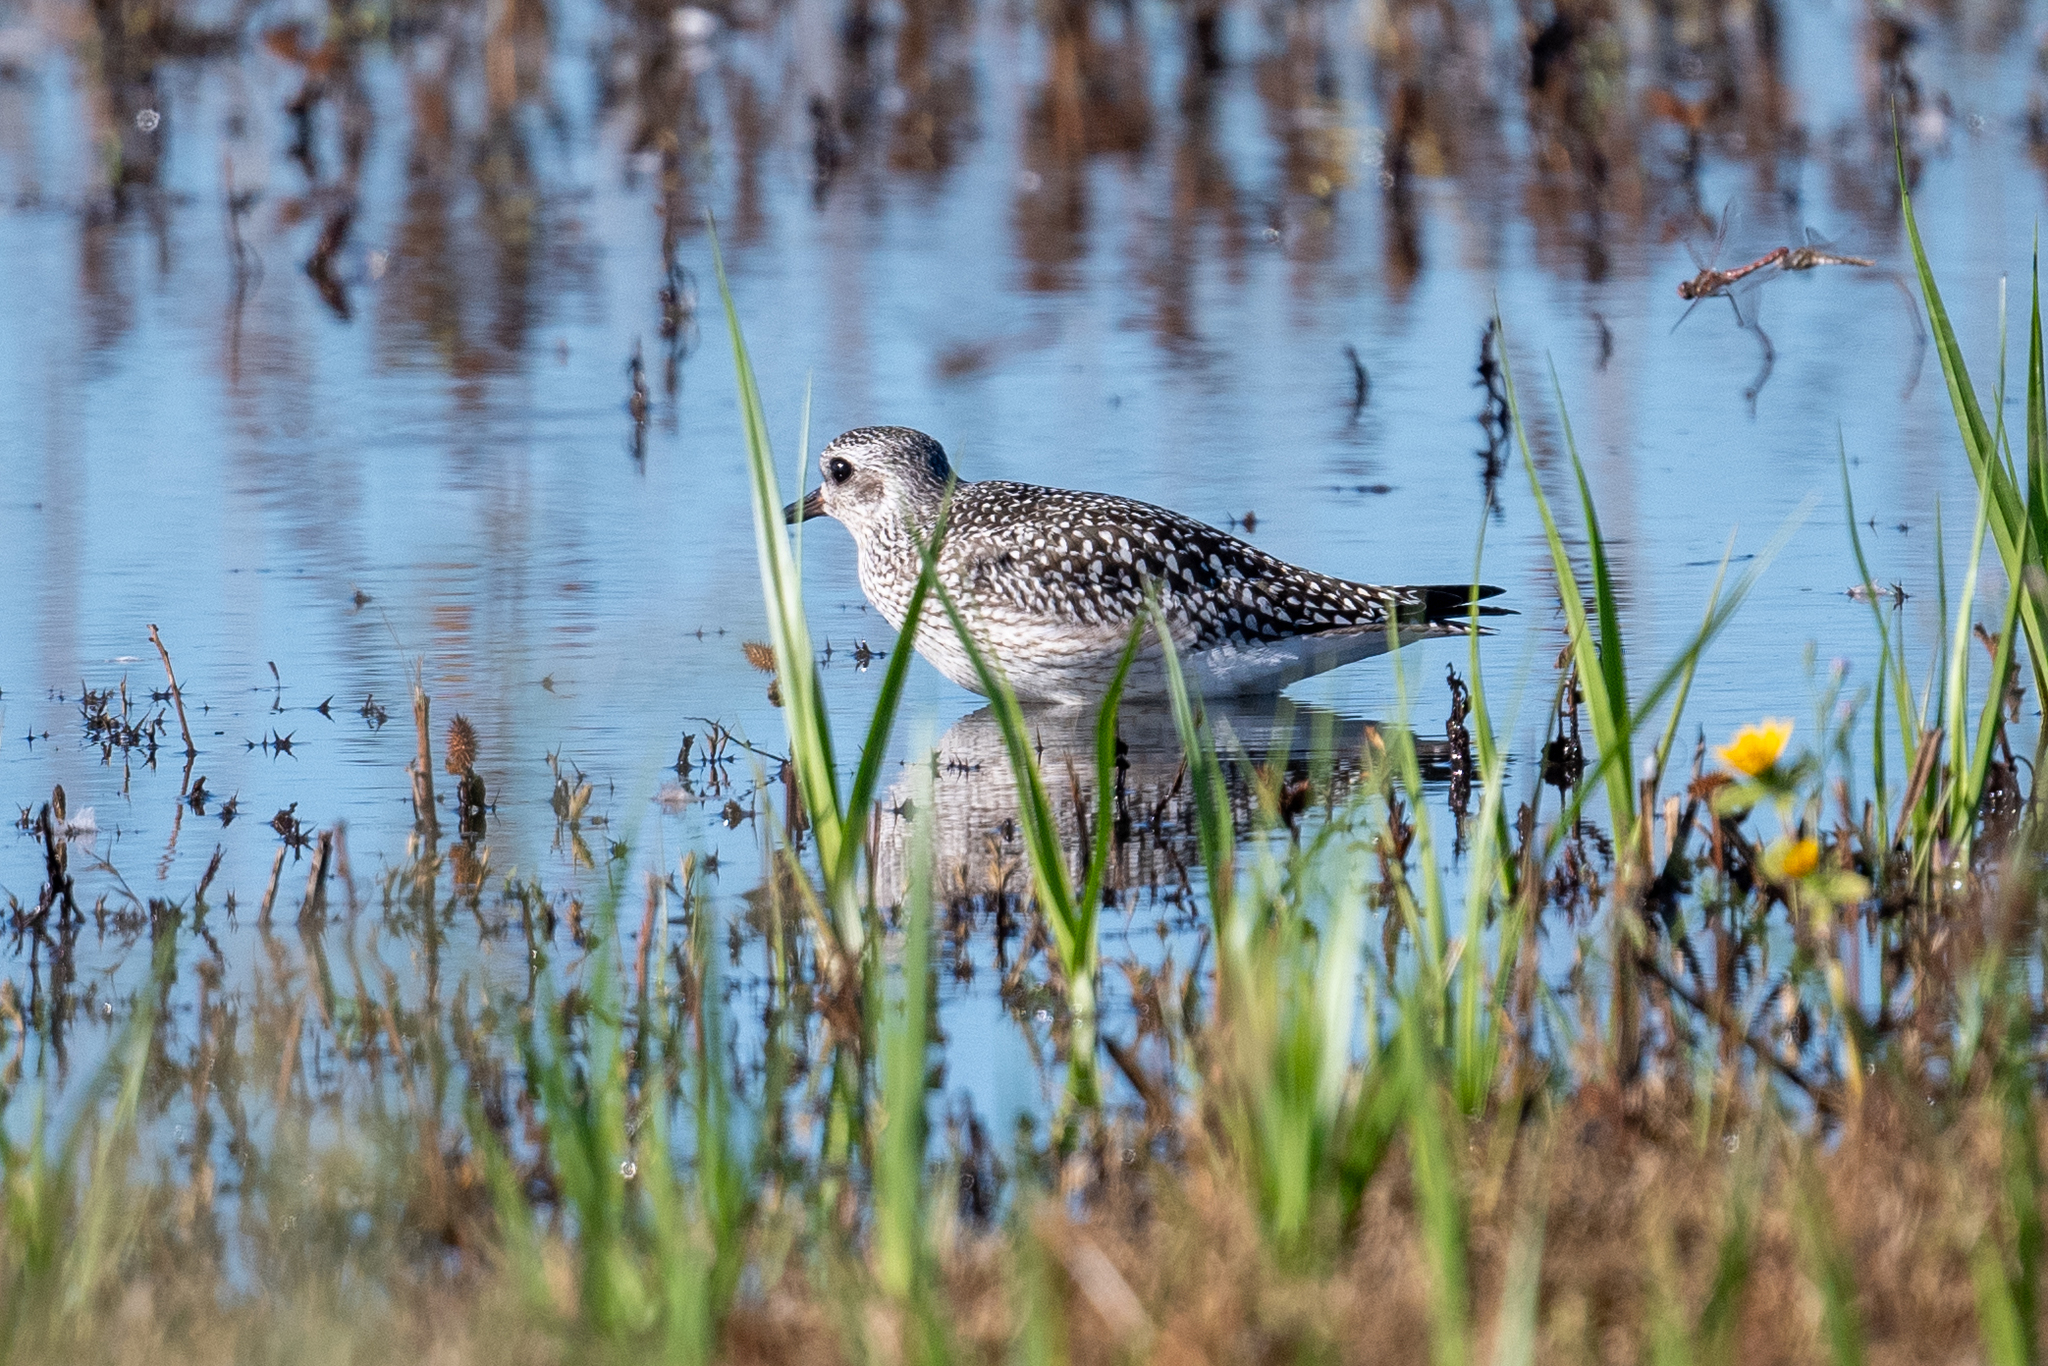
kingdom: Animalia
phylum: Chordata
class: Aves
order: Charadriiformes
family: Charadriidae
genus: Pluvialis
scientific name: Pluvialis squatarola
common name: Grey plover
